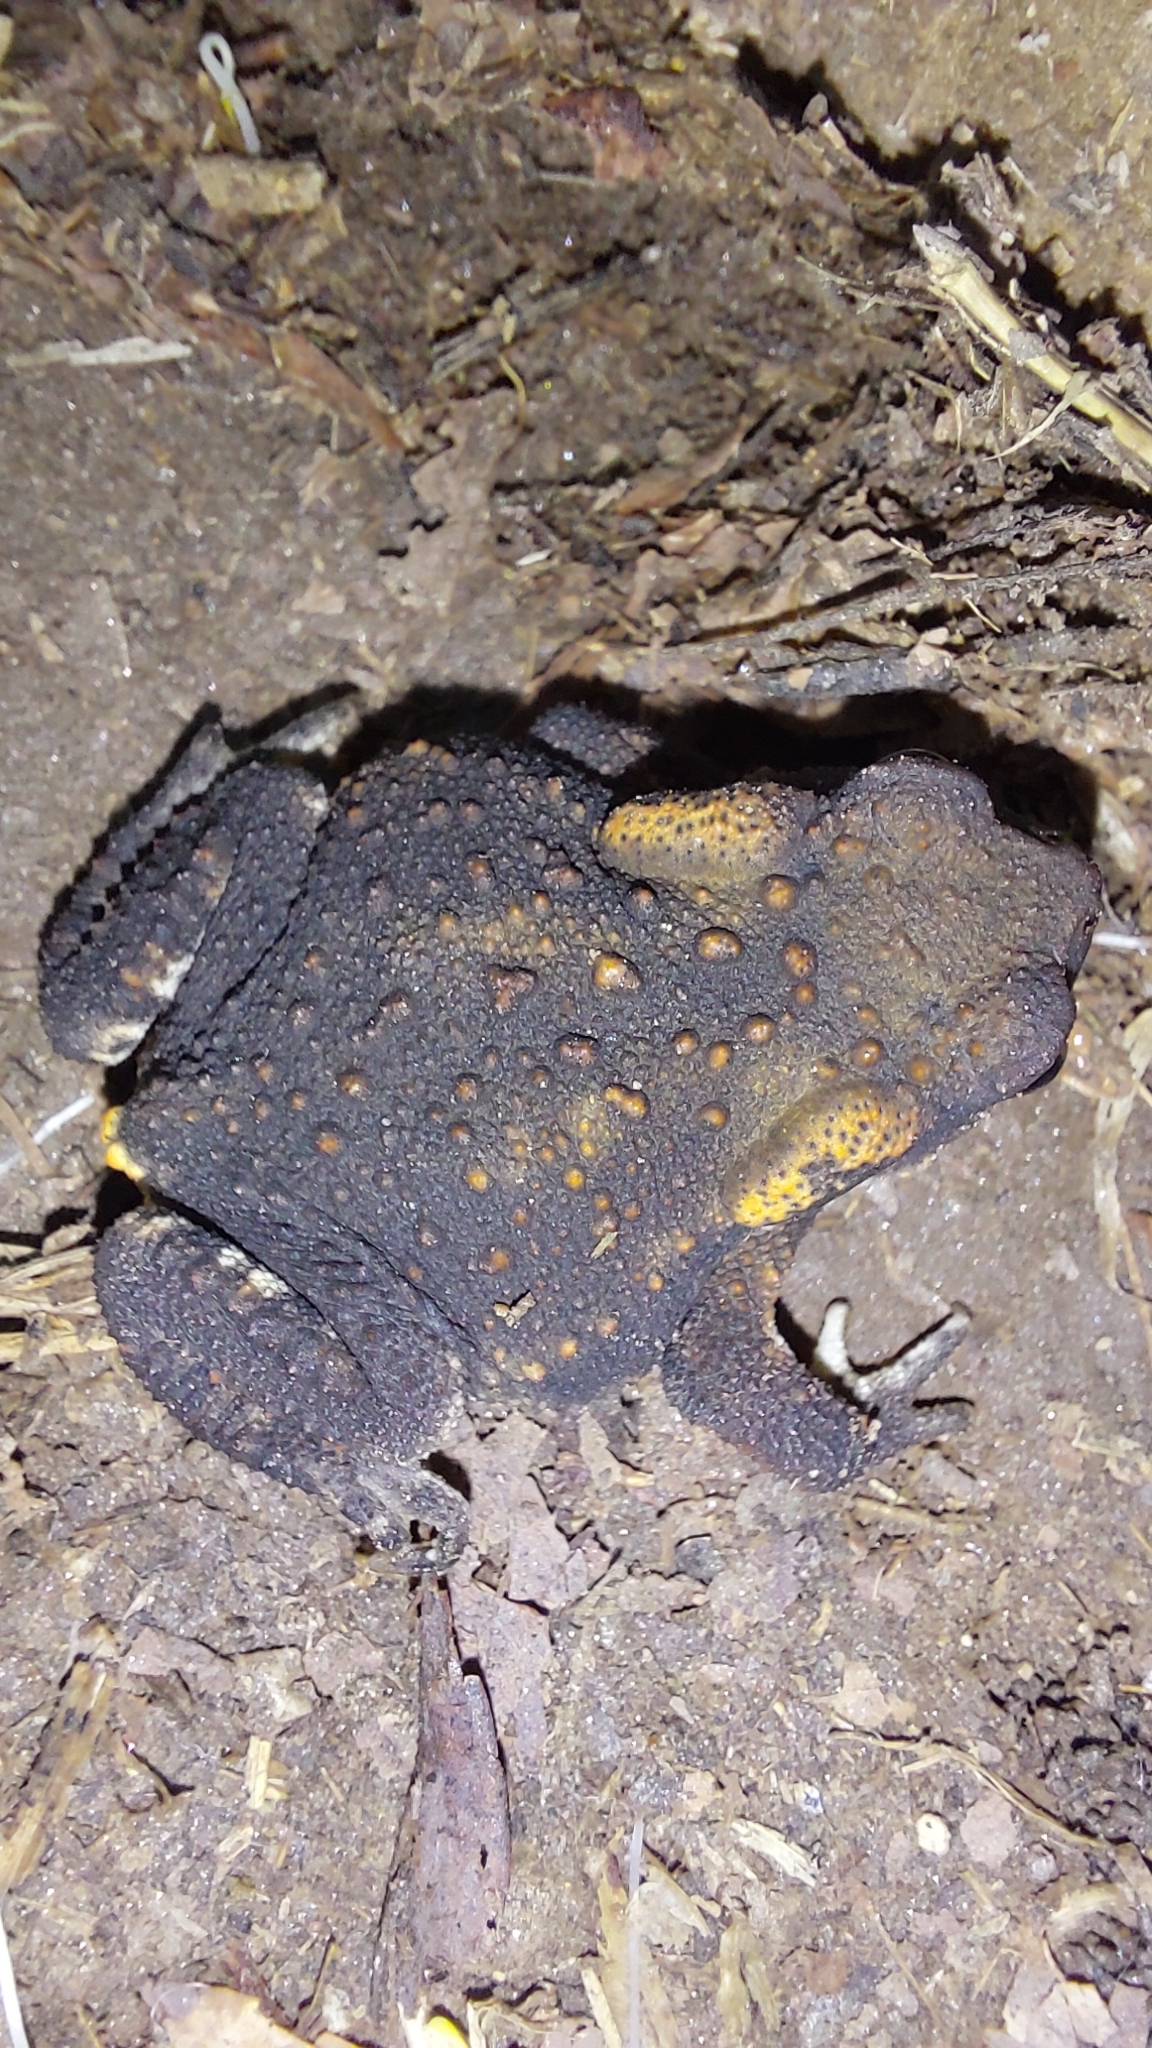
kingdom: Animalia
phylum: Chordata
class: Amphibia
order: Anura
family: Bufonidae
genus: Bufo
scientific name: Bufo spinosus
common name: Western common toad
